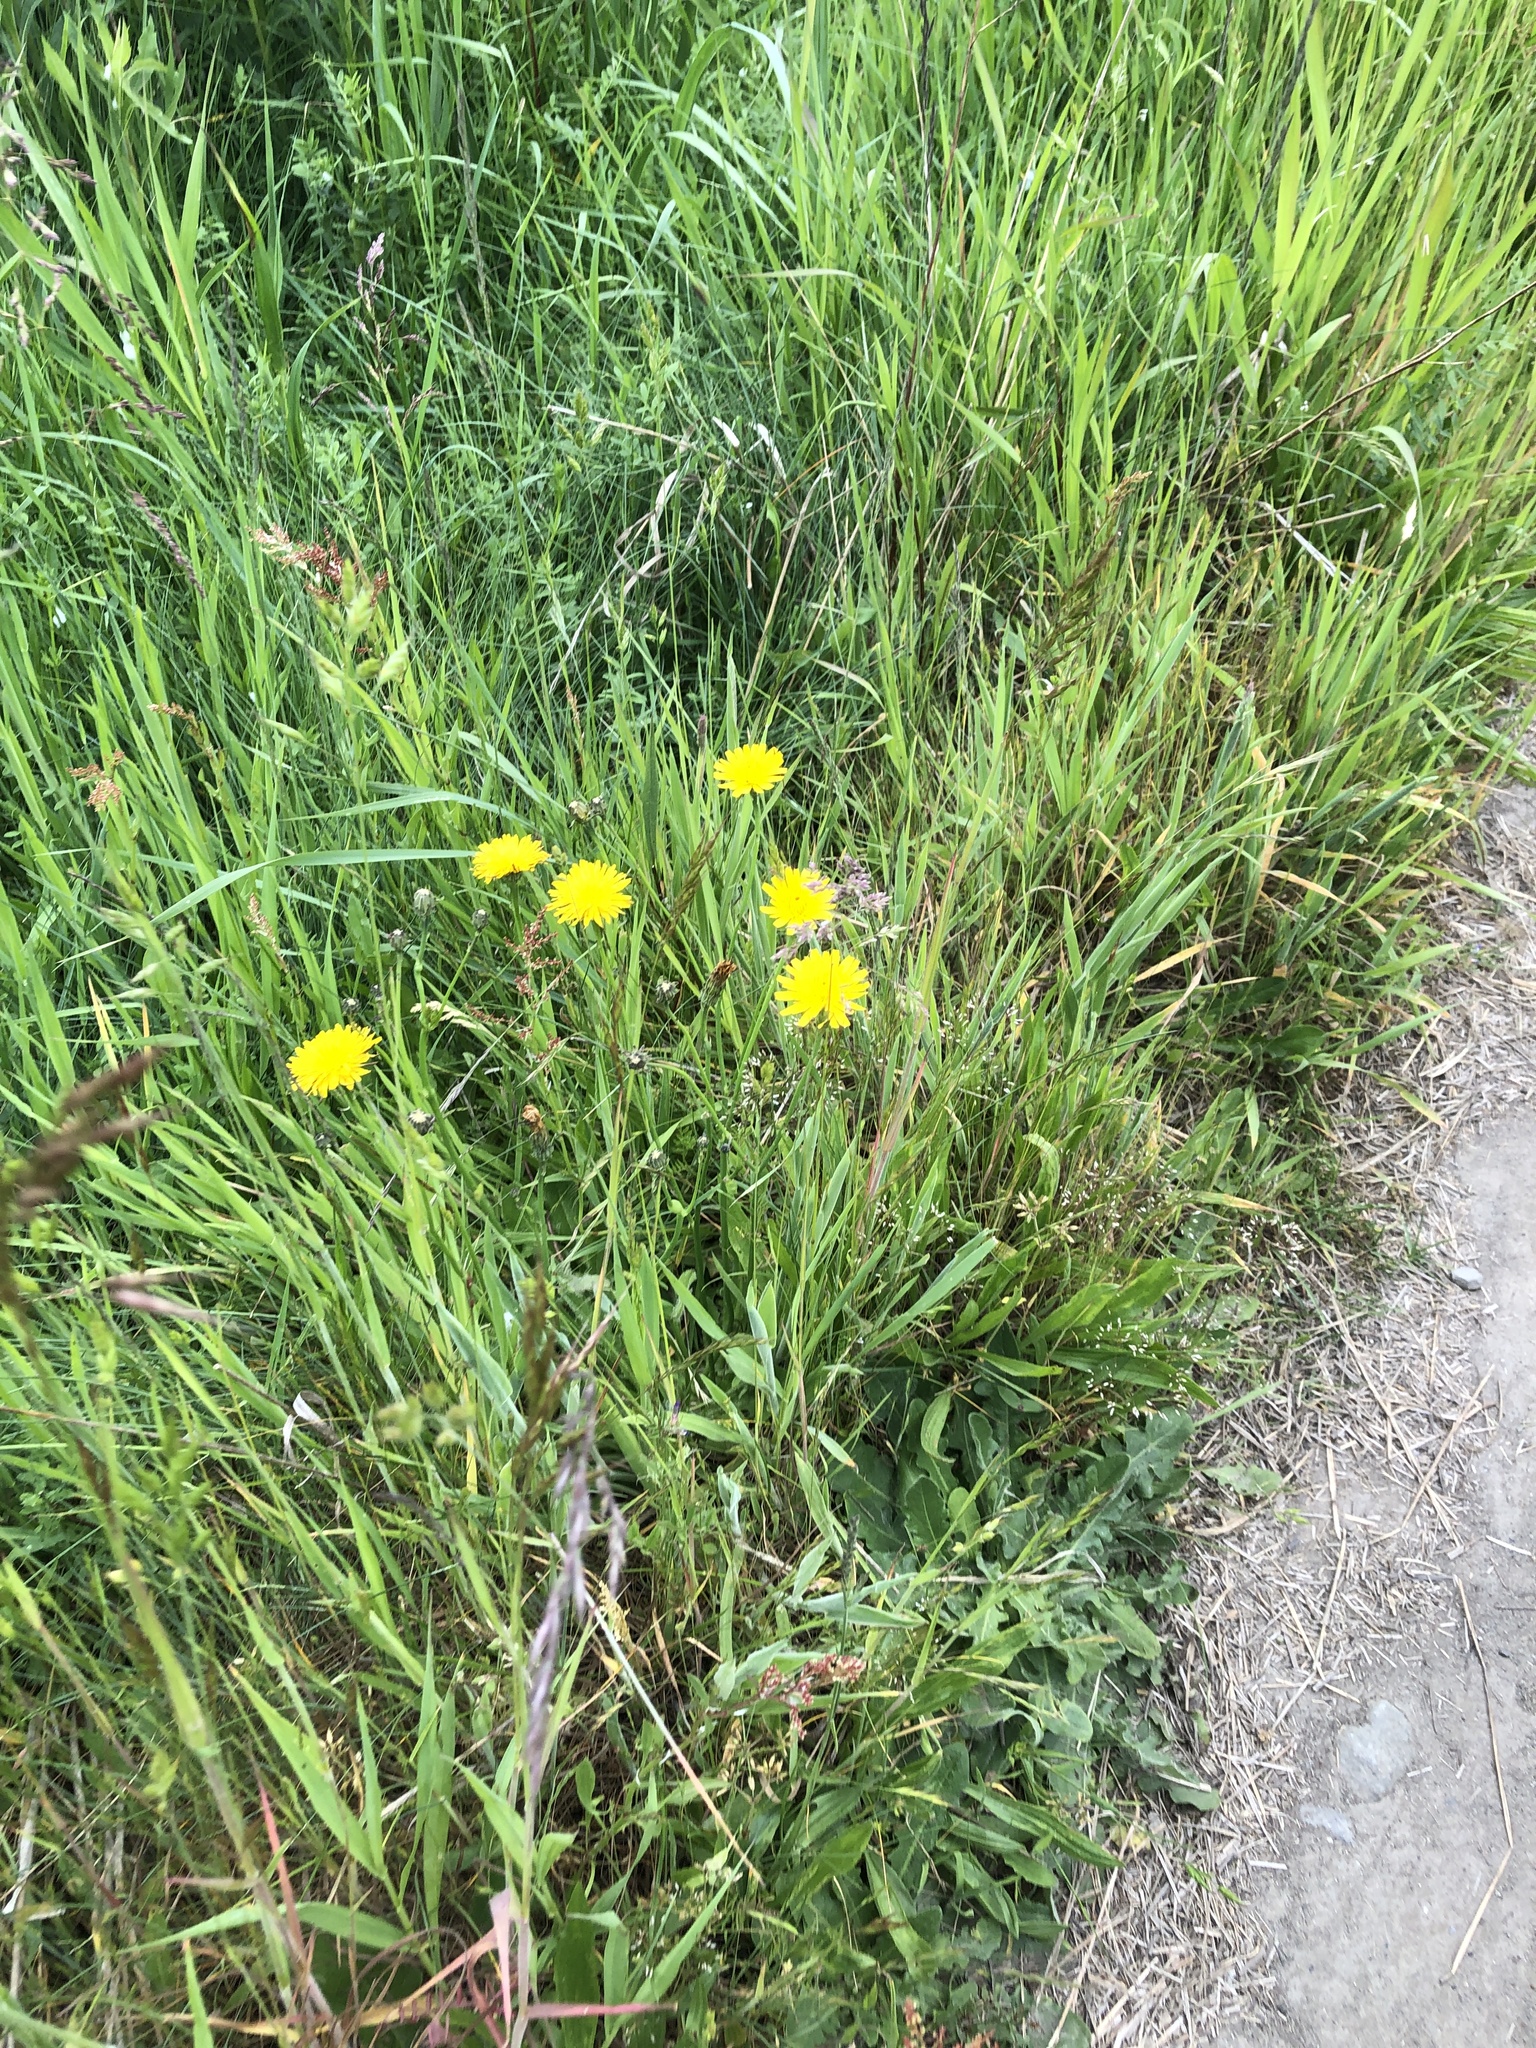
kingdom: Plantae
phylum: Tracheophyta
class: Magnoliopsida
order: Asterales
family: Asteraceae
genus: Hypochaeris
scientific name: Hypochaeris radicata
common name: Flatweed
